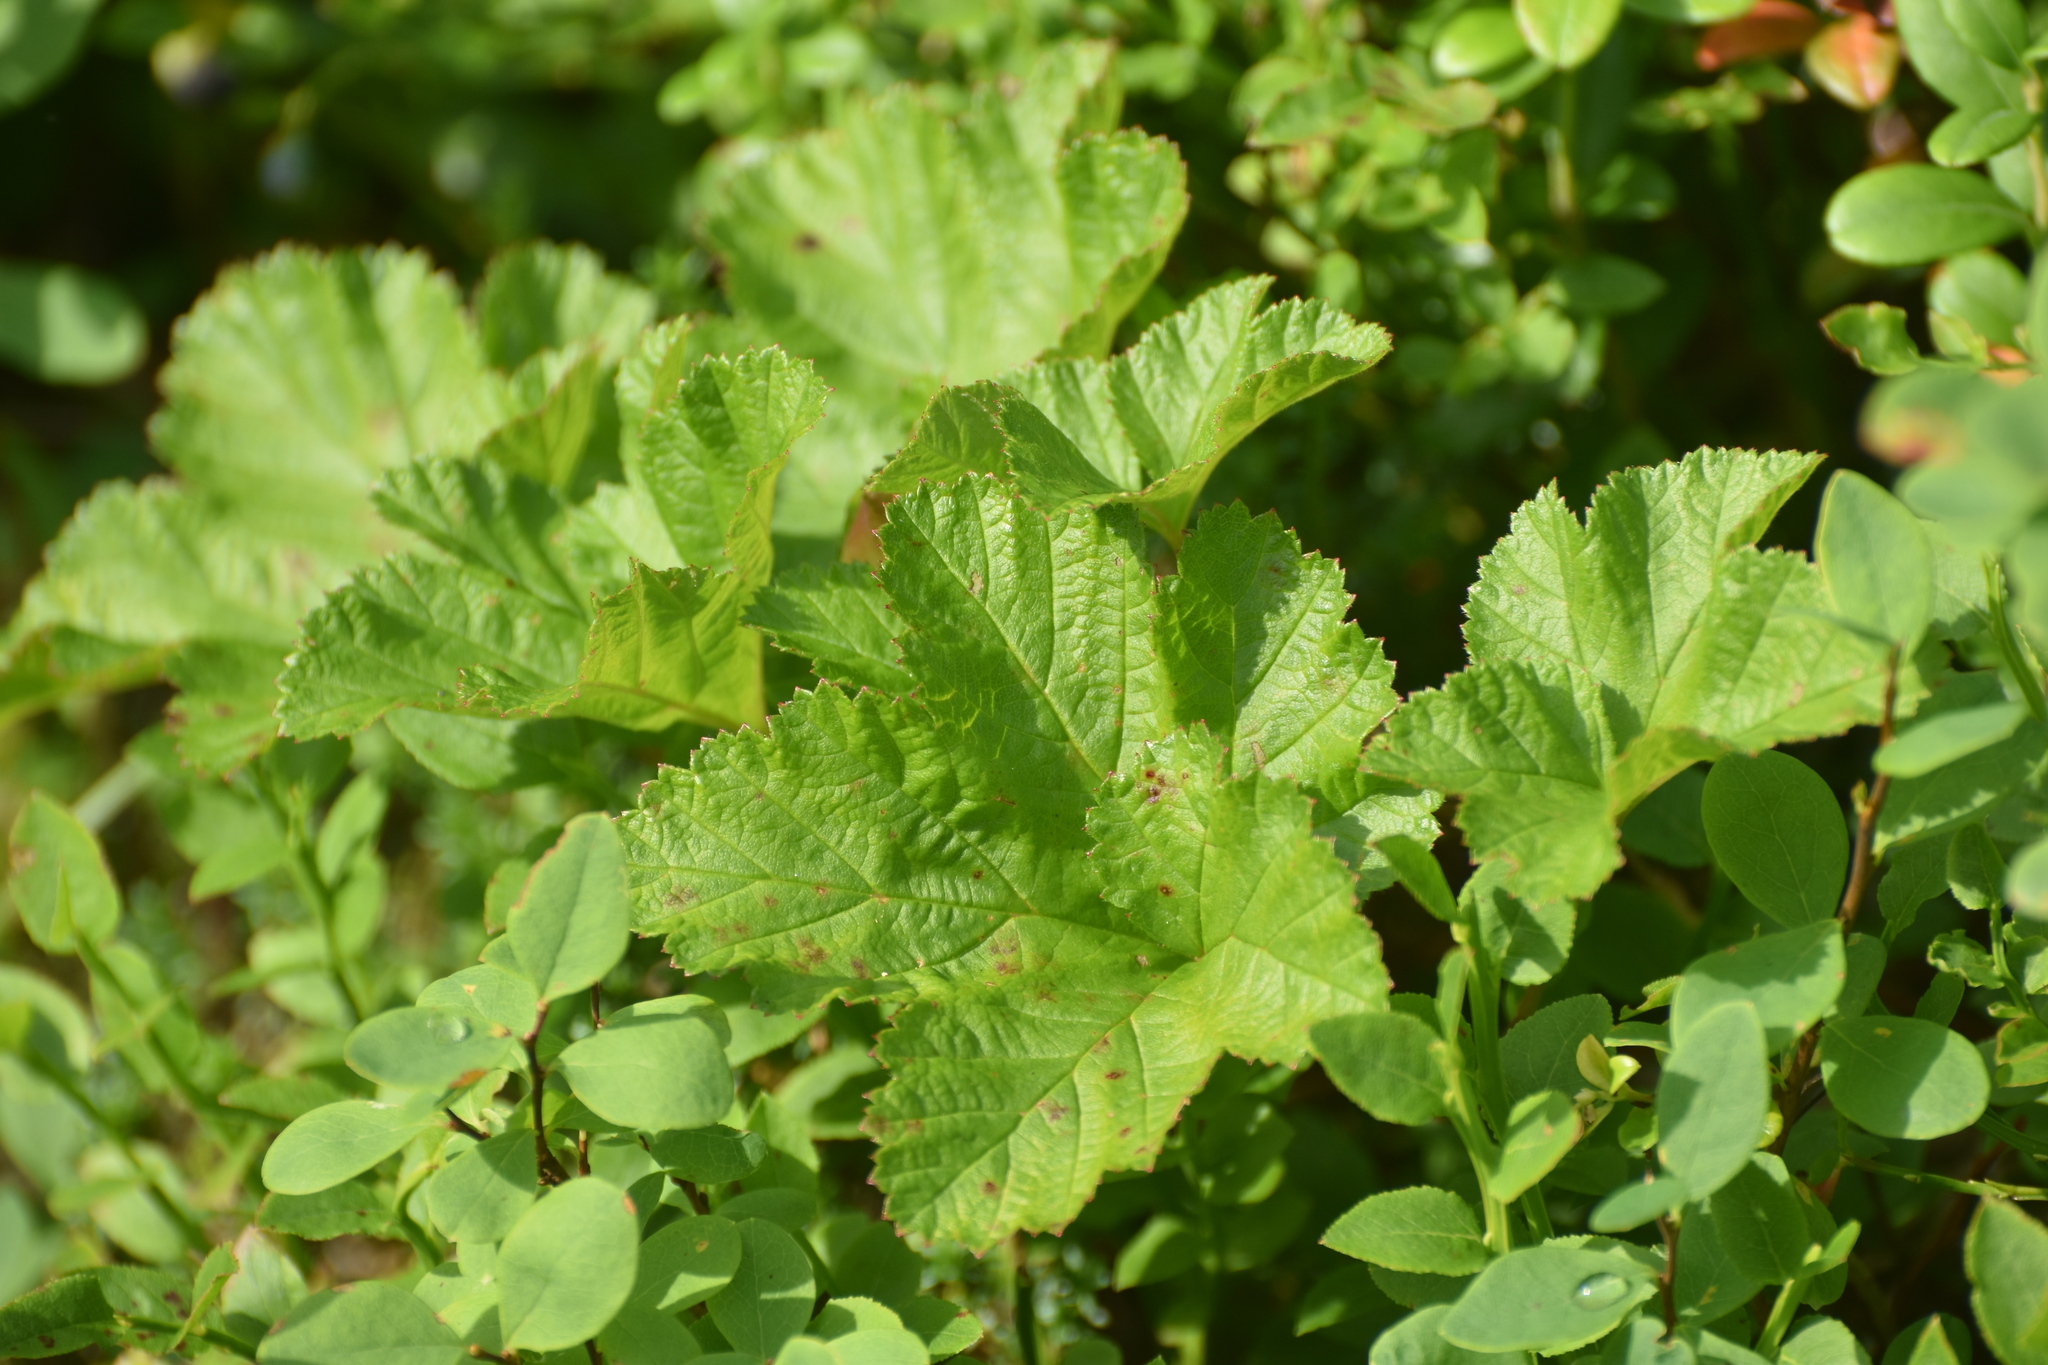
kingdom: Plantae
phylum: Tracheophyta
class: Magnoliopsida
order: Rosales
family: Rosaceae
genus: Rubus
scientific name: Rubus chamaemorus
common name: Cloudberry
